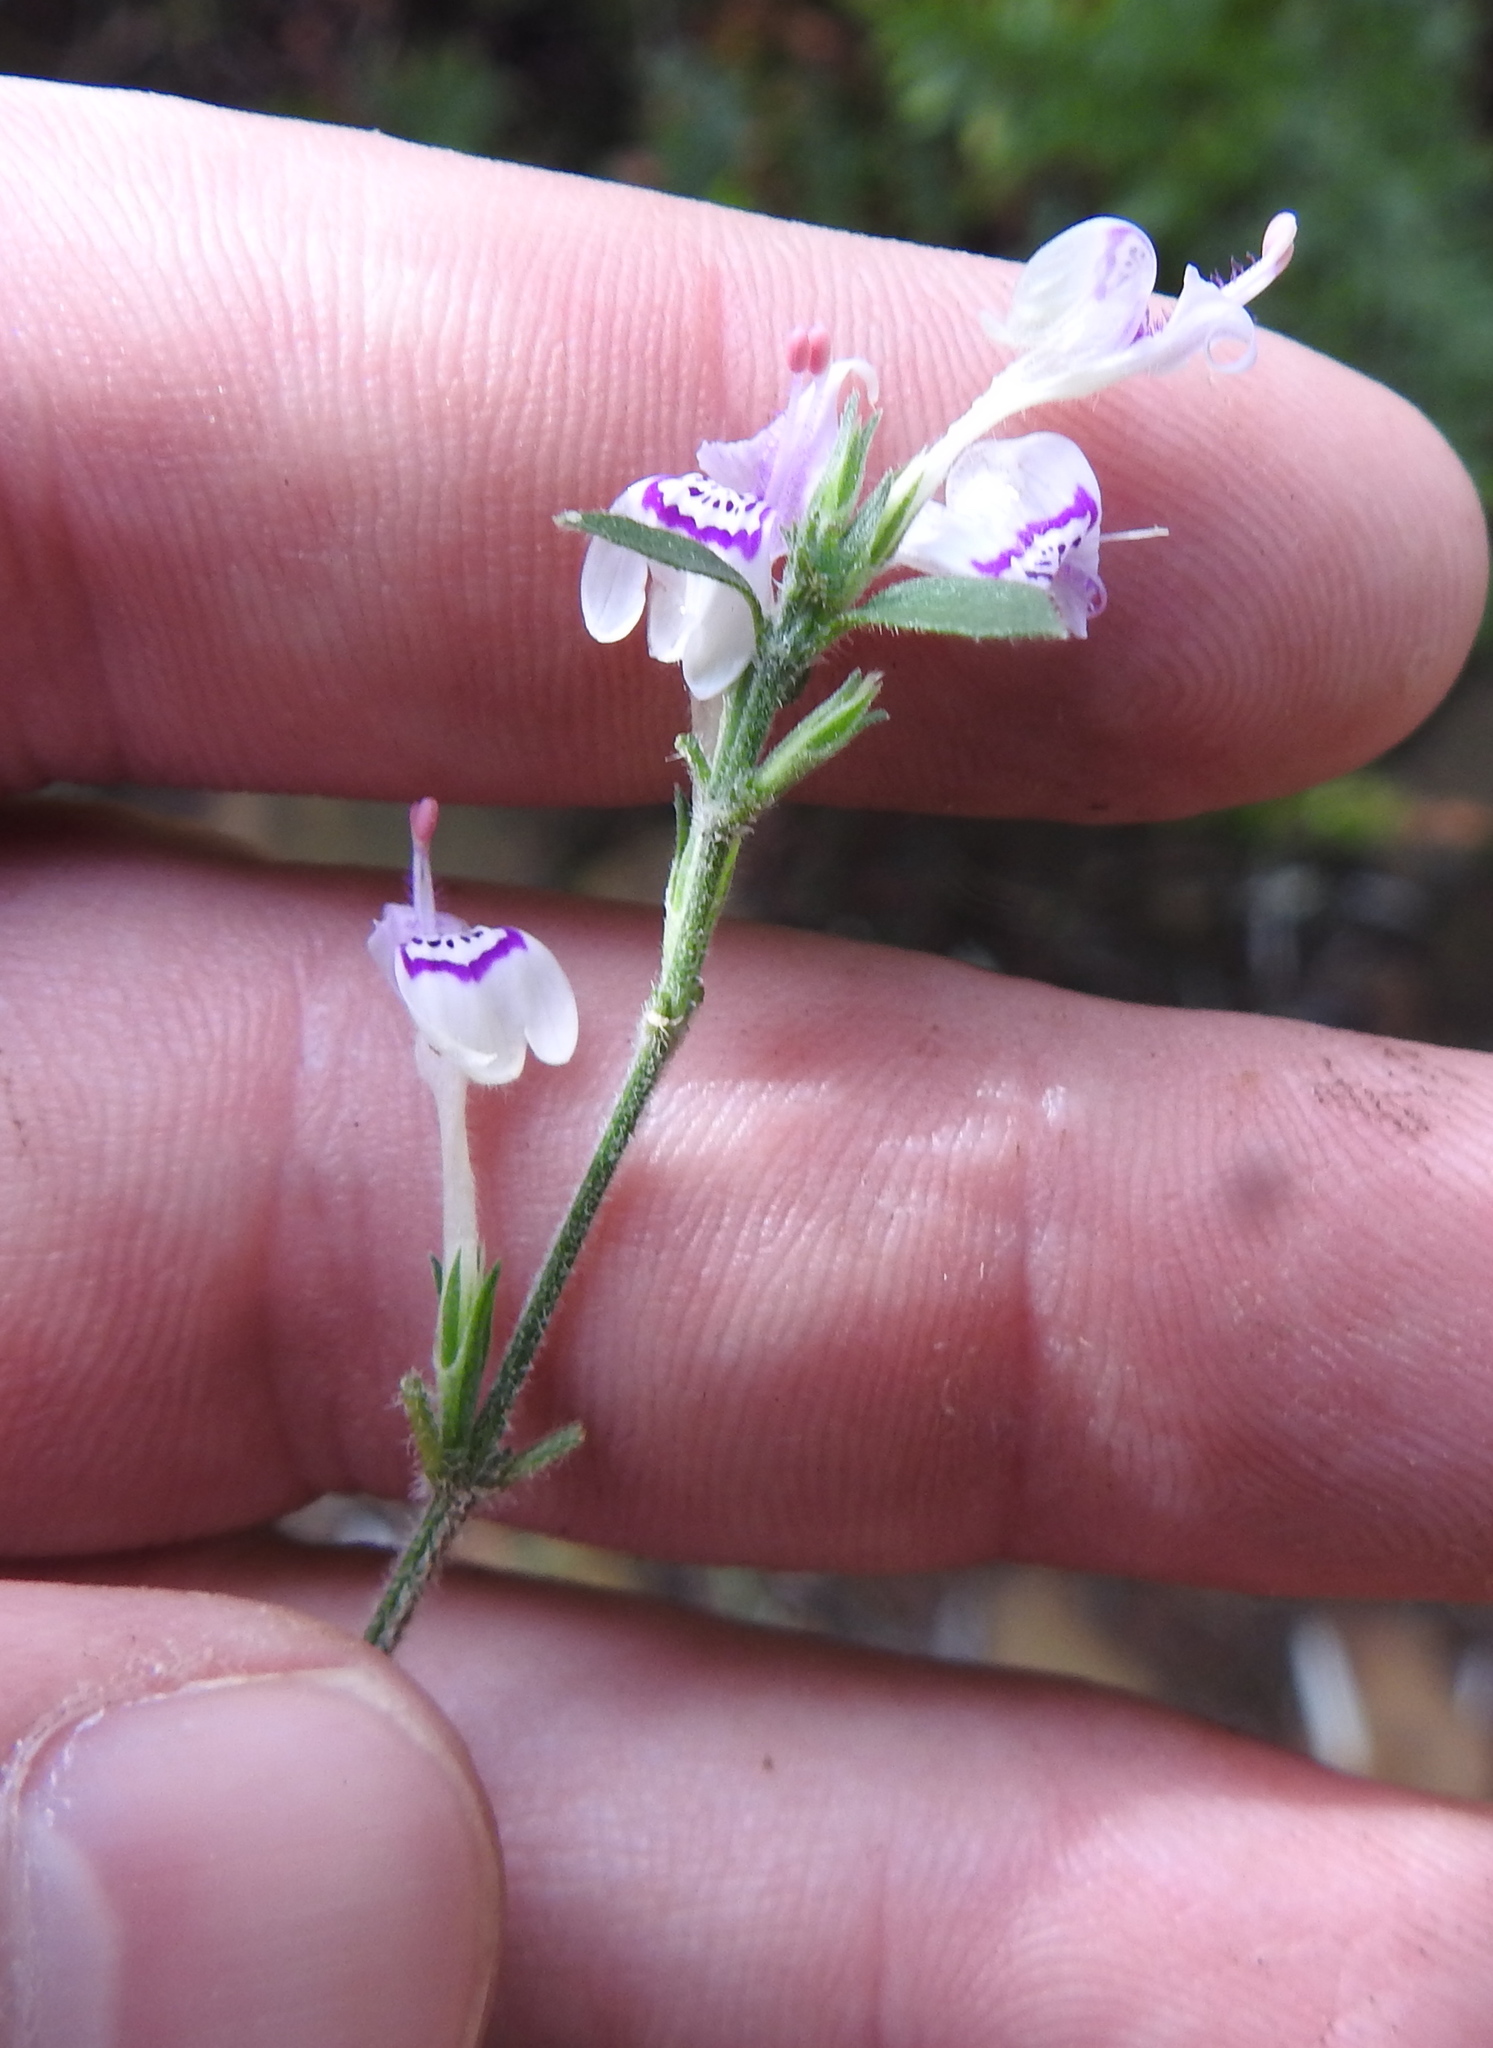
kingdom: Plantae
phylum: Tracheophyta
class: Magnoliopsida
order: Lamiales
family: Acanthaceae
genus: Hypoestes
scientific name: Hypoestes forskaolii
